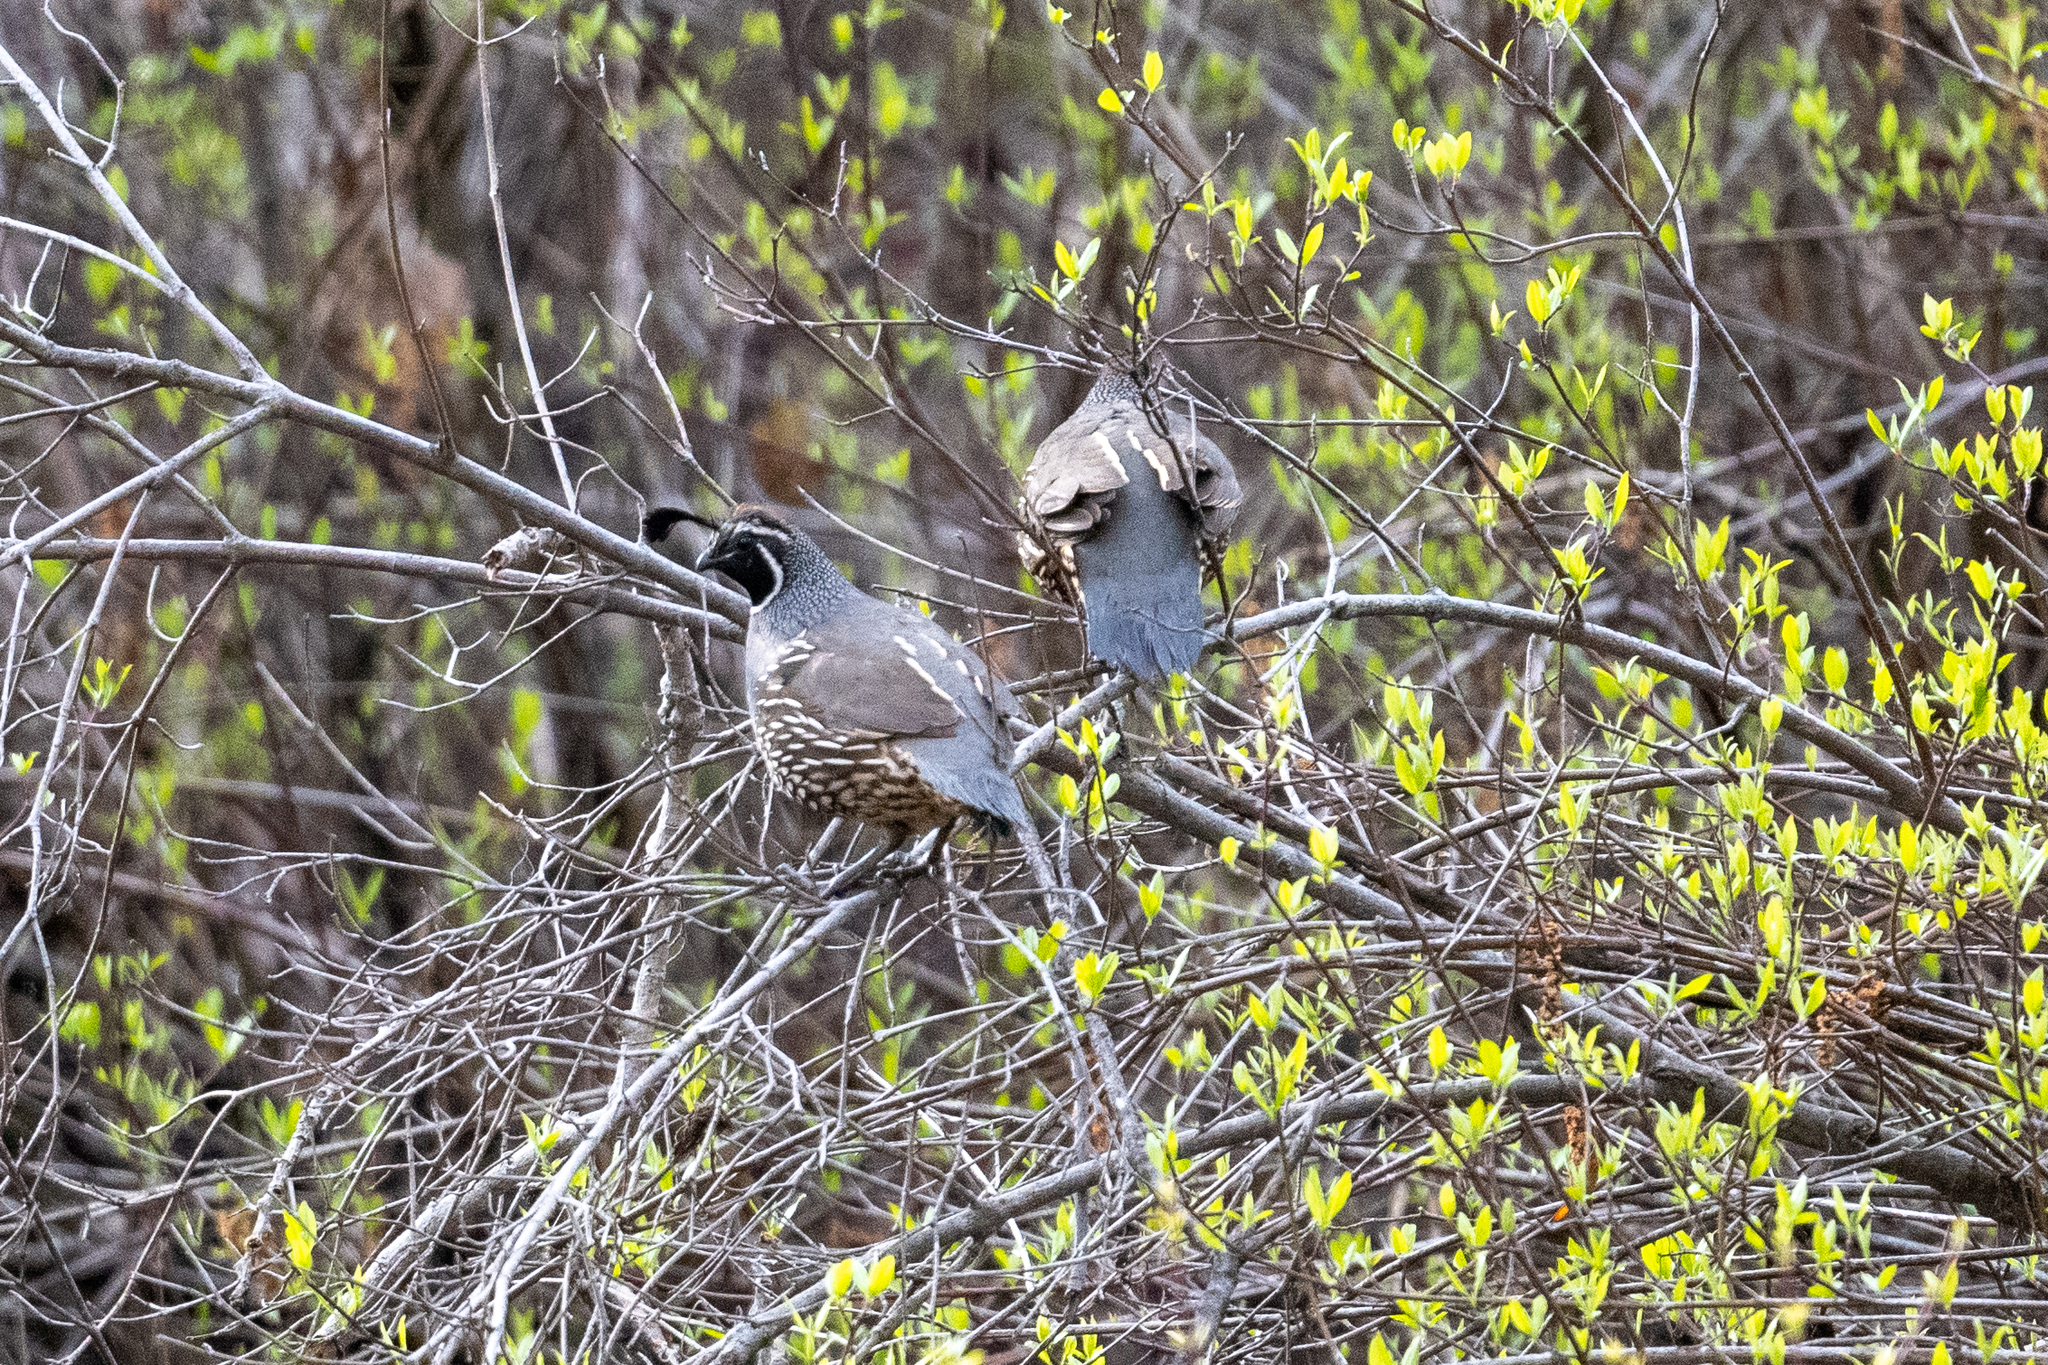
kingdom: Animalia
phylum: Chordata
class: Aves
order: Galliformes
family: Odontophoridae
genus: Callipepla
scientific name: Callipepla californica
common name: California quail
